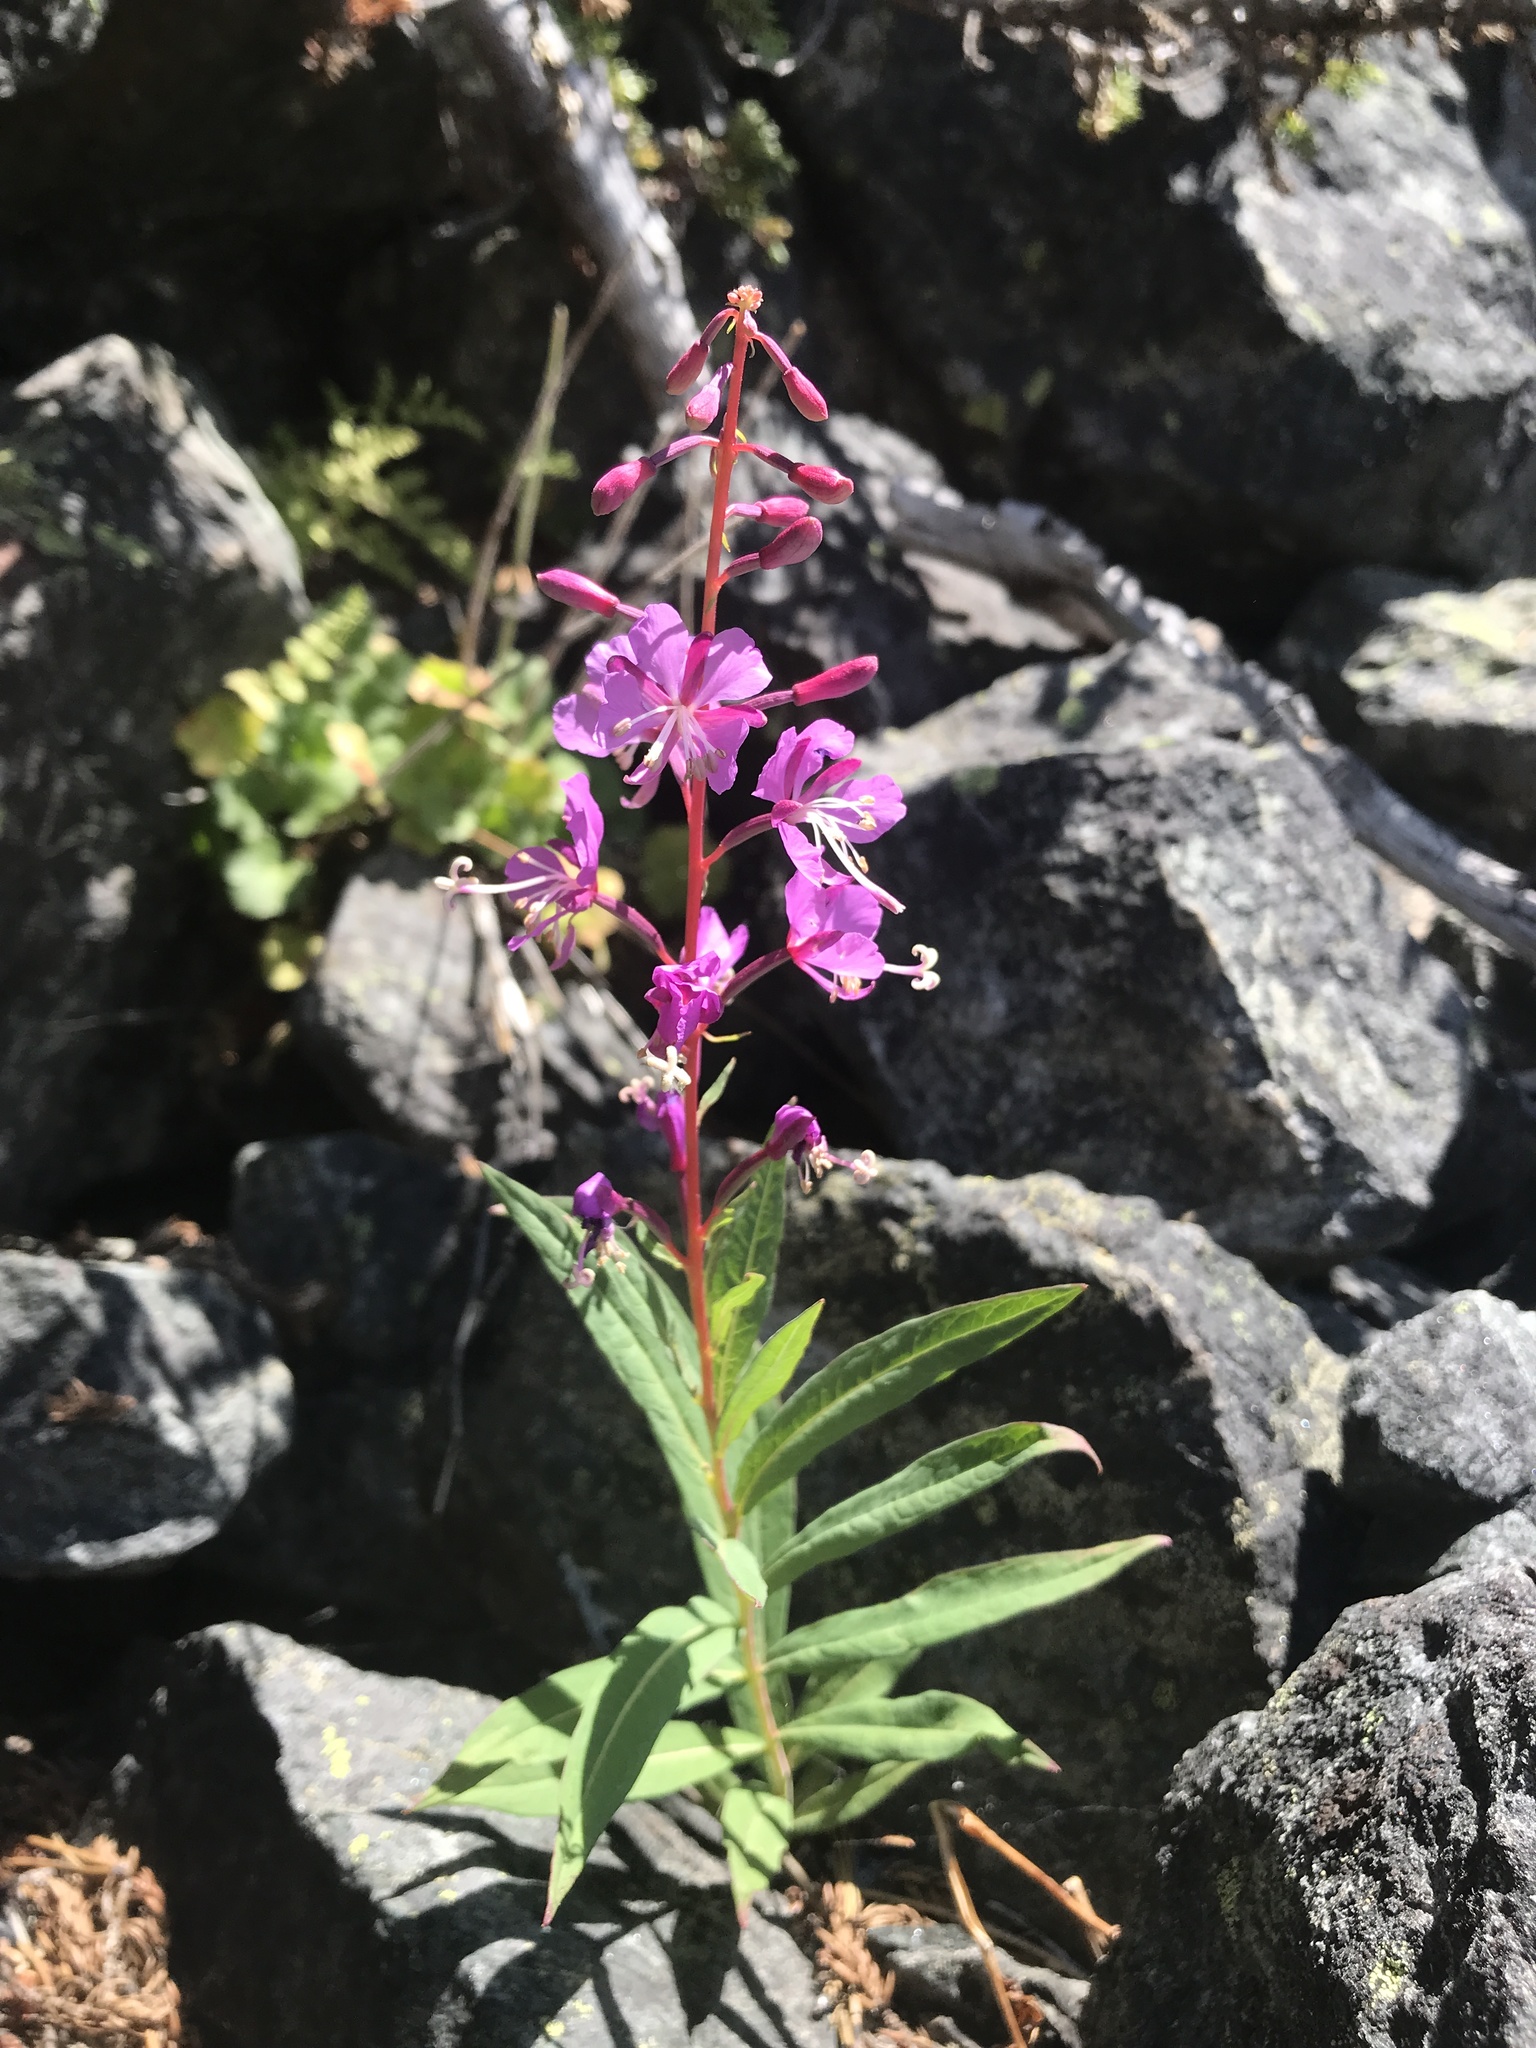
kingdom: Plantae
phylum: Tracheophyta
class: Magnoliopsida
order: Myrtales
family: Onagraceae
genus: Chamaenerion
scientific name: Chamaenerion angustifolium
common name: Fireweed
